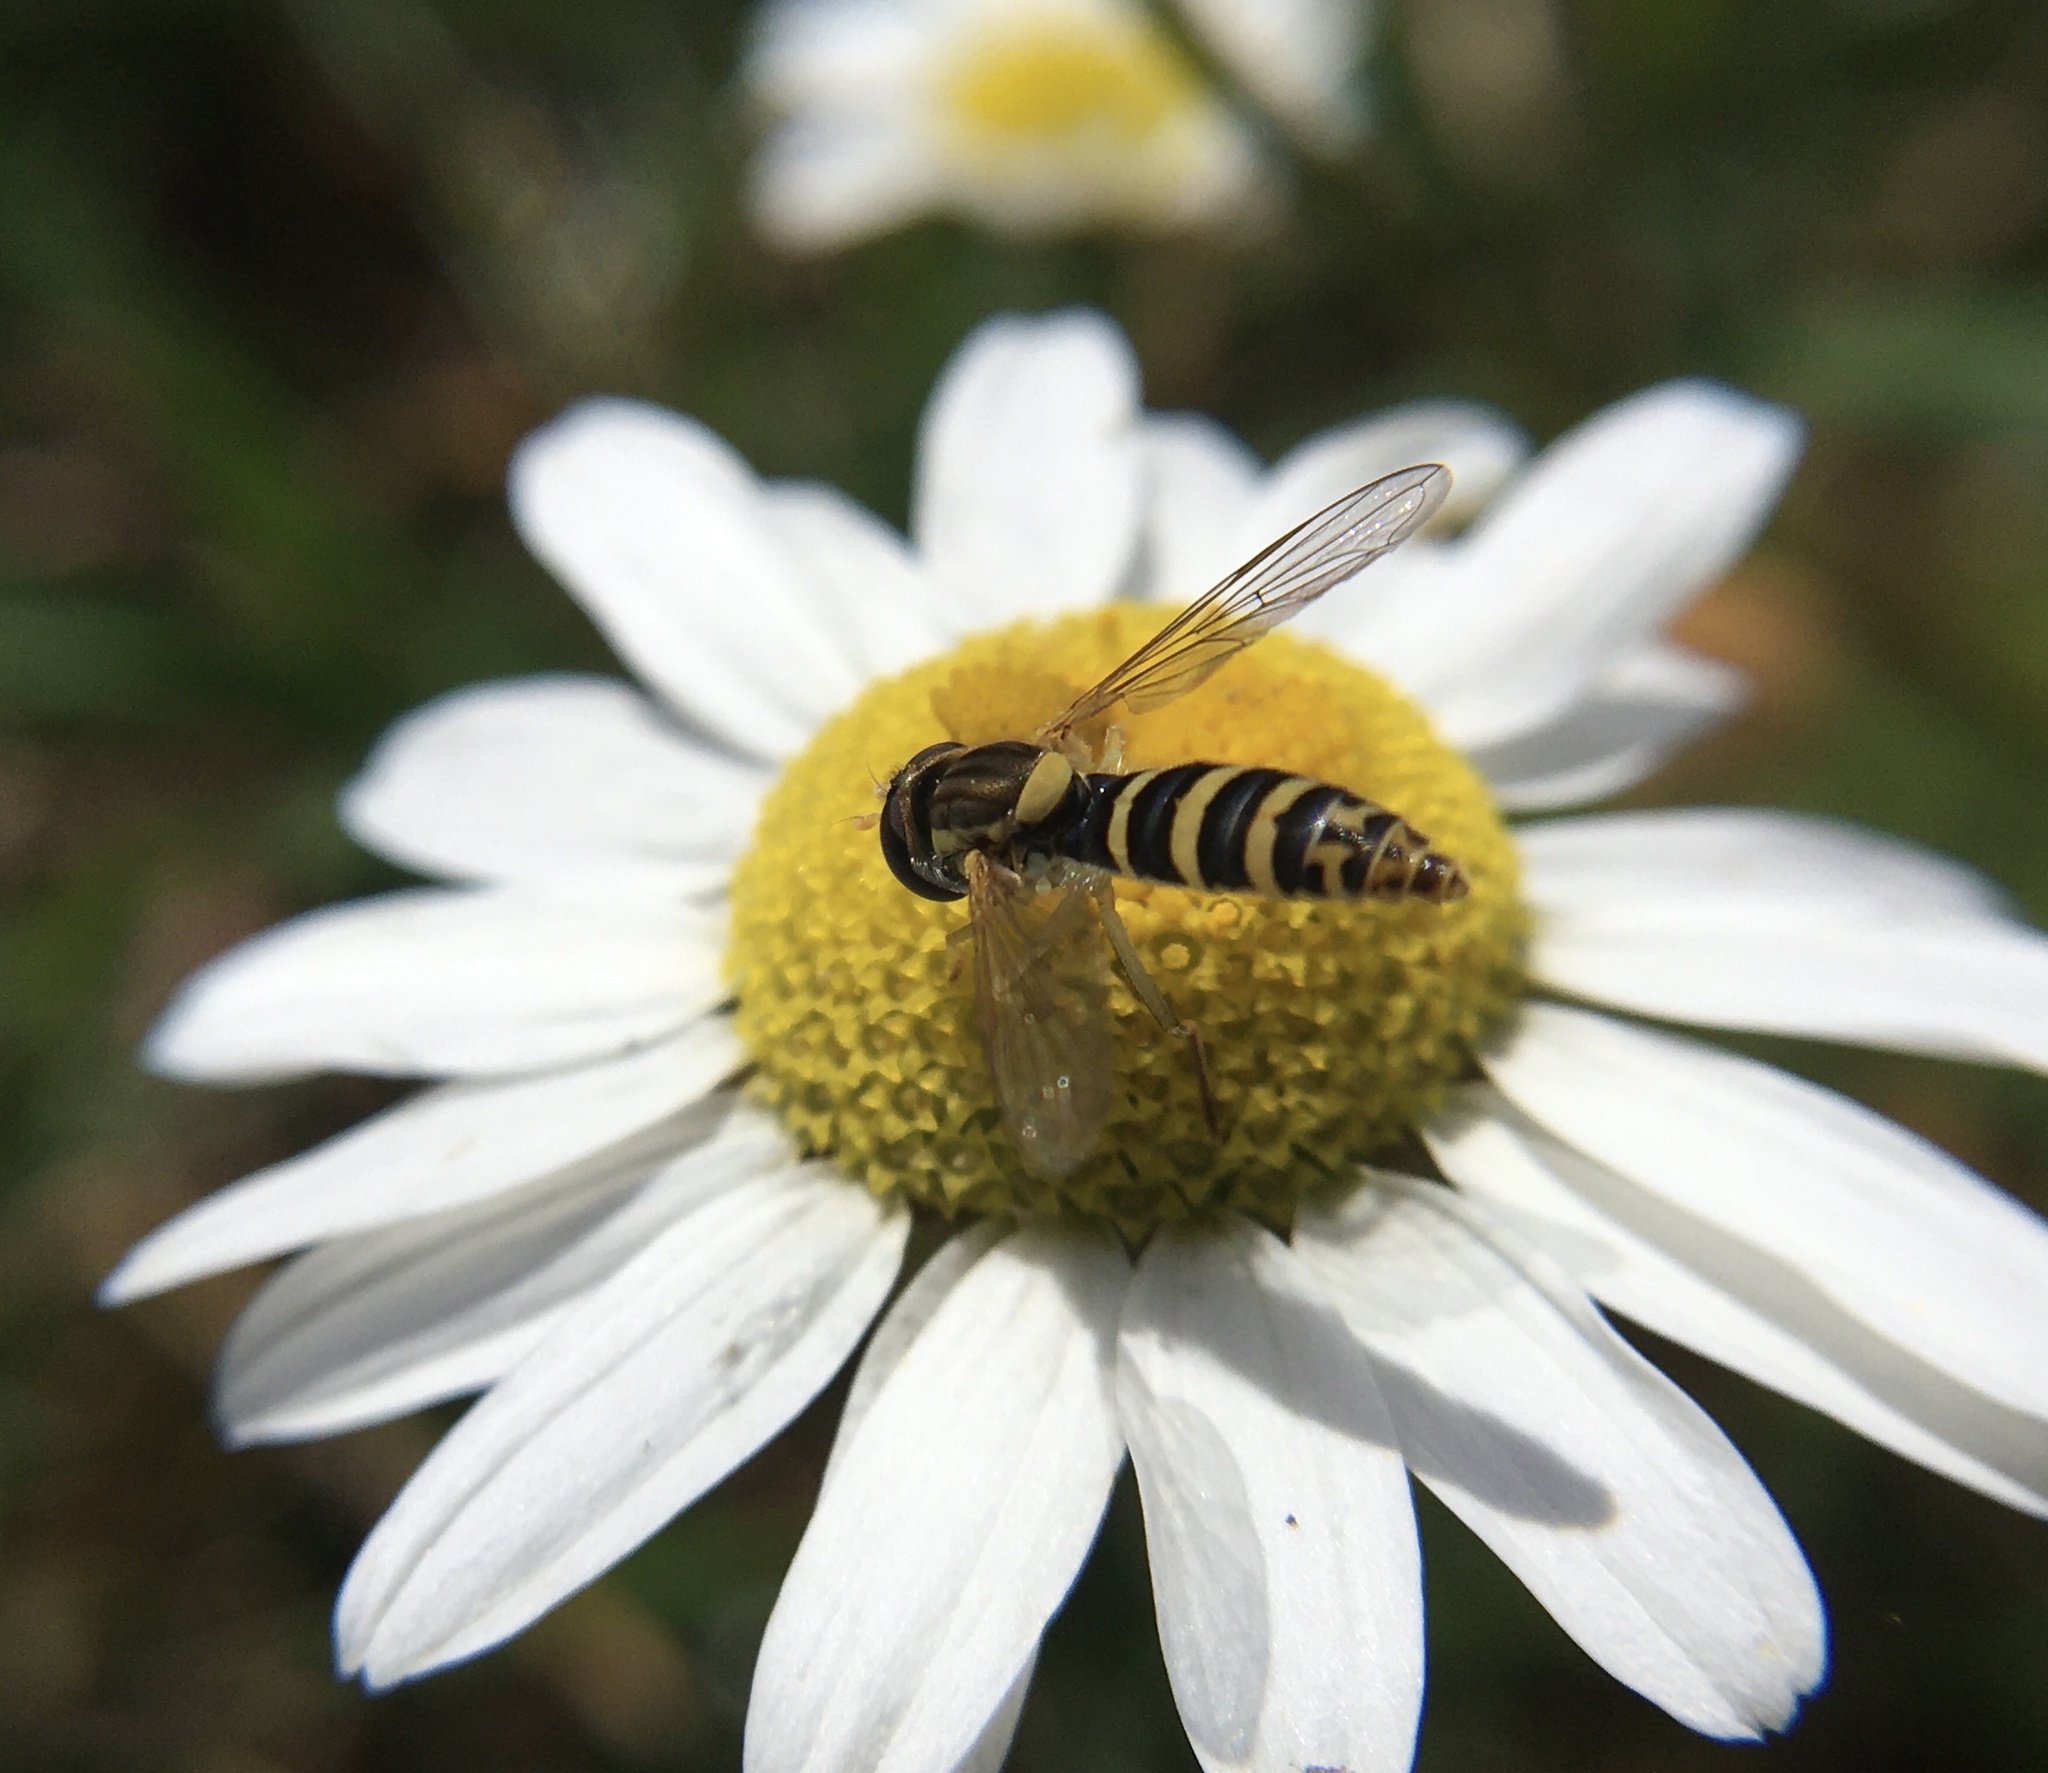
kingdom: Animalia
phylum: Arthropoda
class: Insecta
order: Diptera
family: Syrphidae
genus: Sphaerophoria
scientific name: Sphaerophoria scripta
